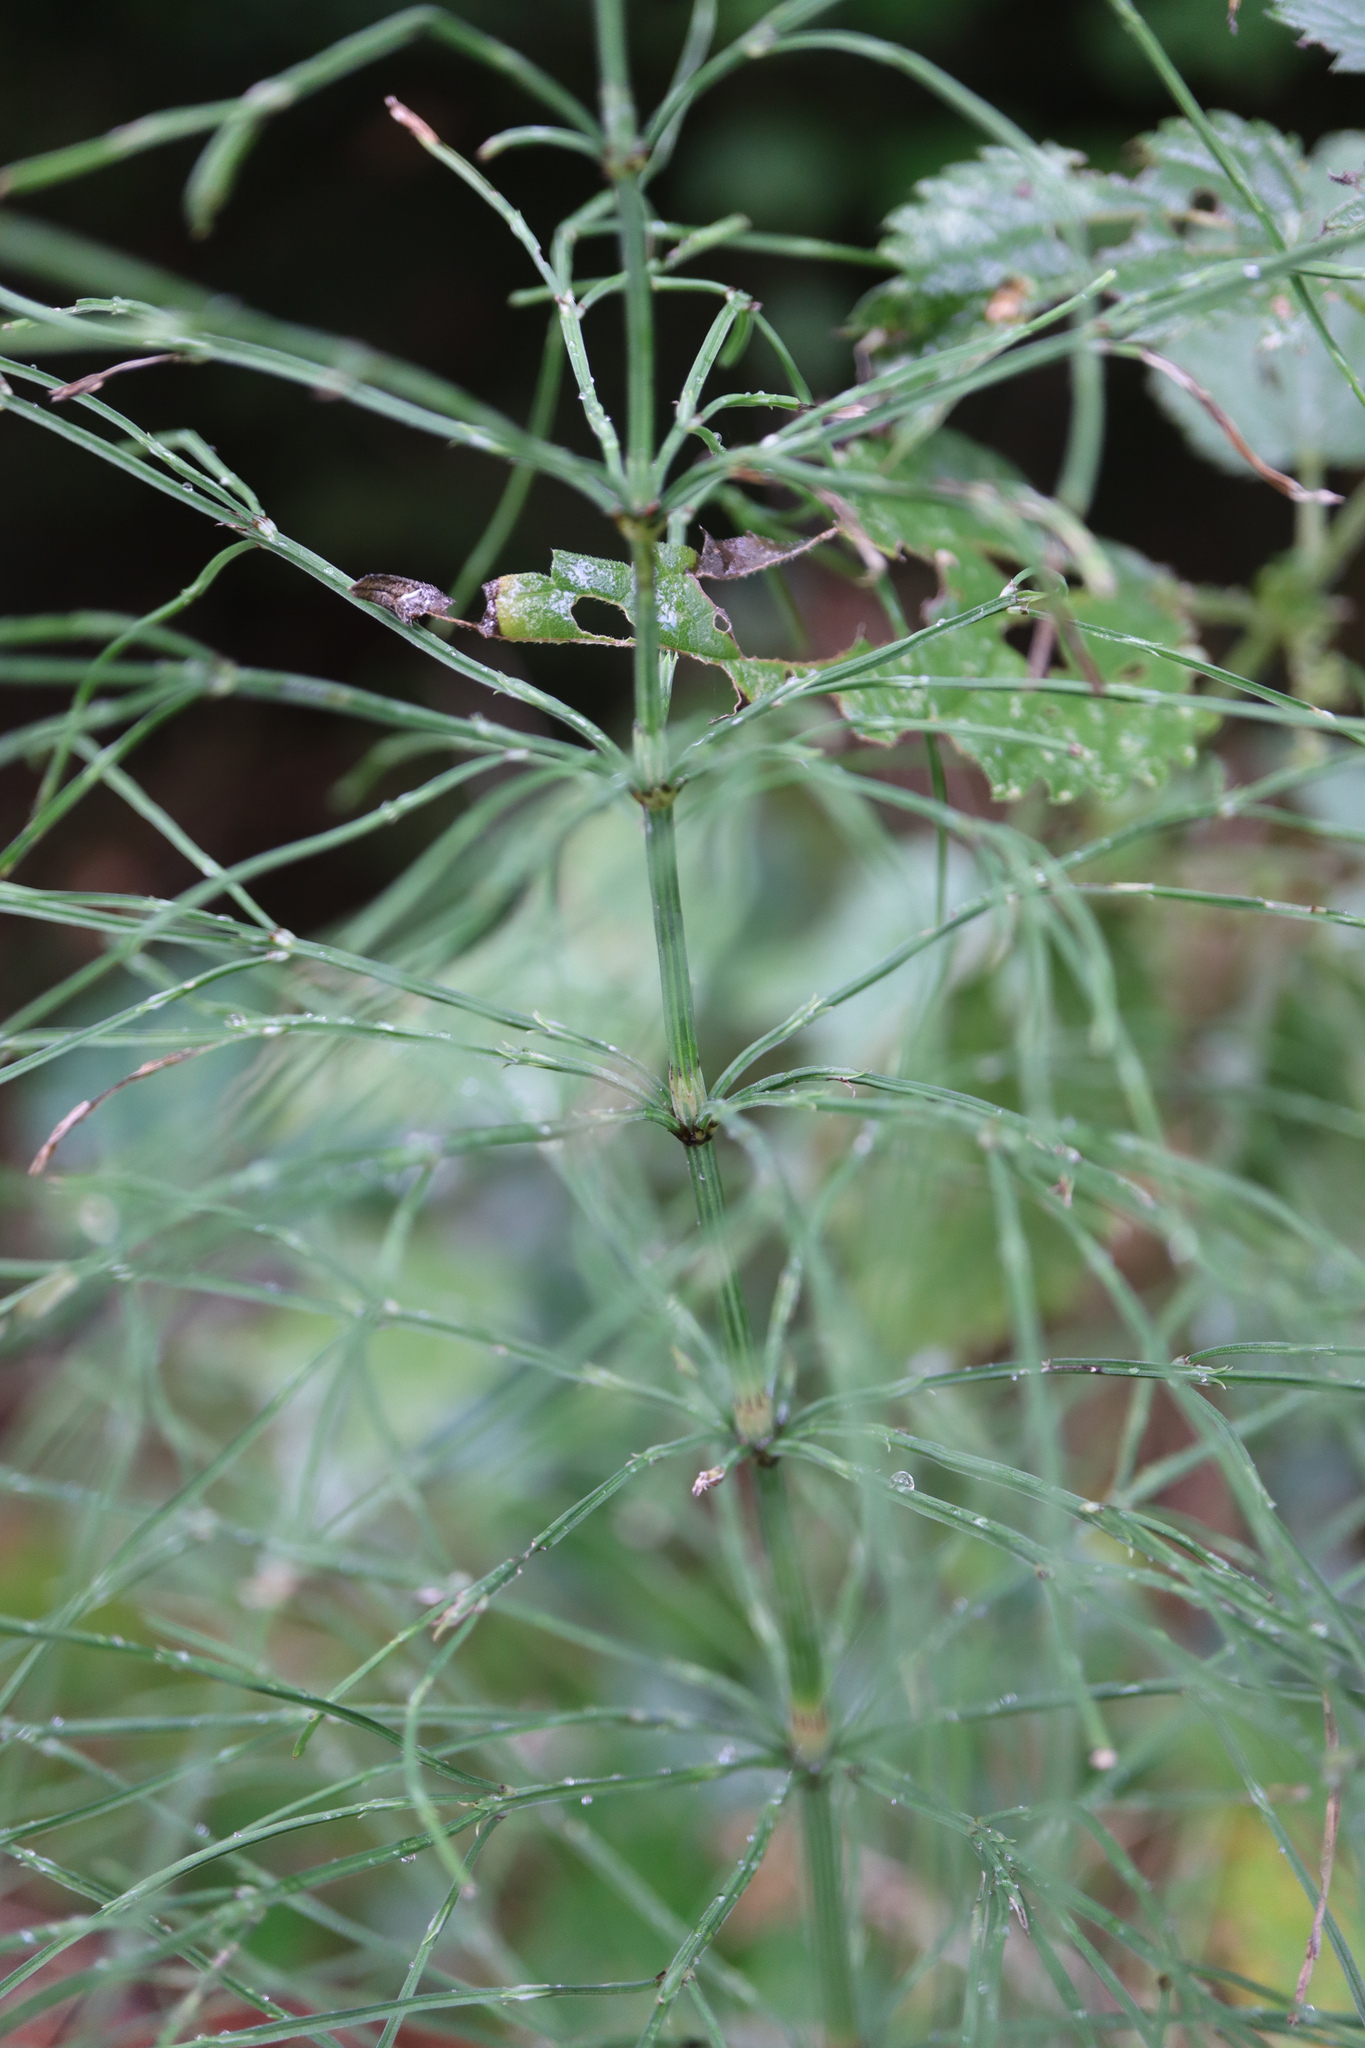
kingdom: Plantae
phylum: Tracheophyta
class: Polypodiopsida
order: Equisetales
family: Equisetaceae
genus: Equisetum
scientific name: Equisetum arvense
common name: Field horsetail
